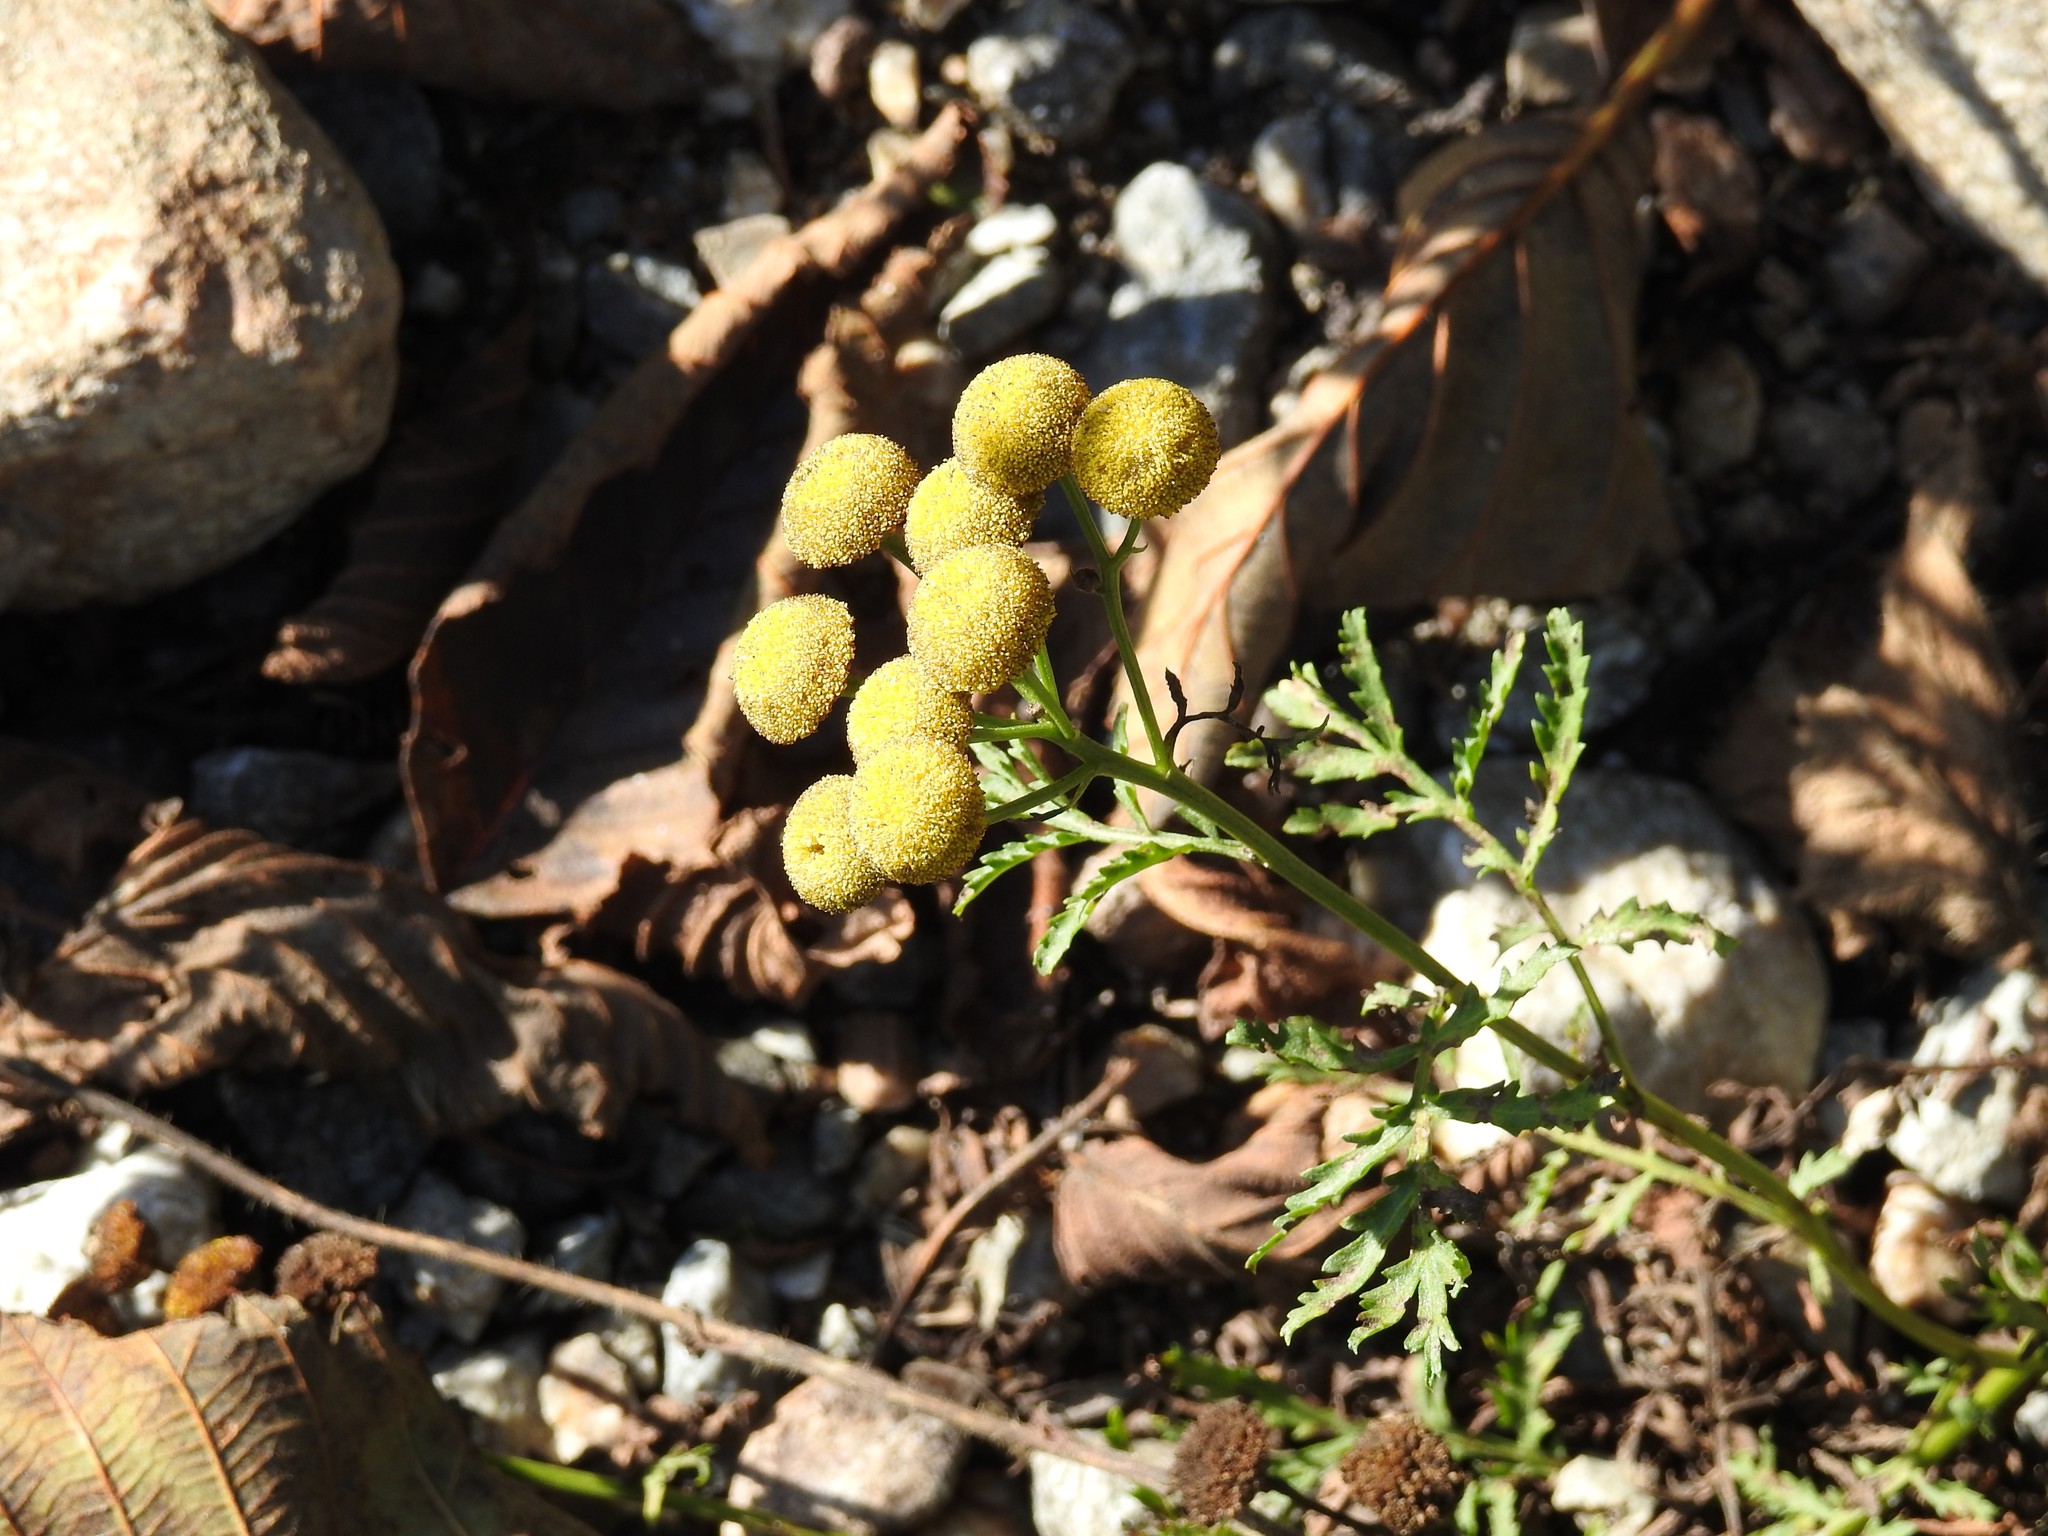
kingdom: Plantae
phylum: Tracheophyta
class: Magnoliopsida
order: Asterales
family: Asteraceae
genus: Tanacetum
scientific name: Tanacetum vulgare
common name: Common tansy
